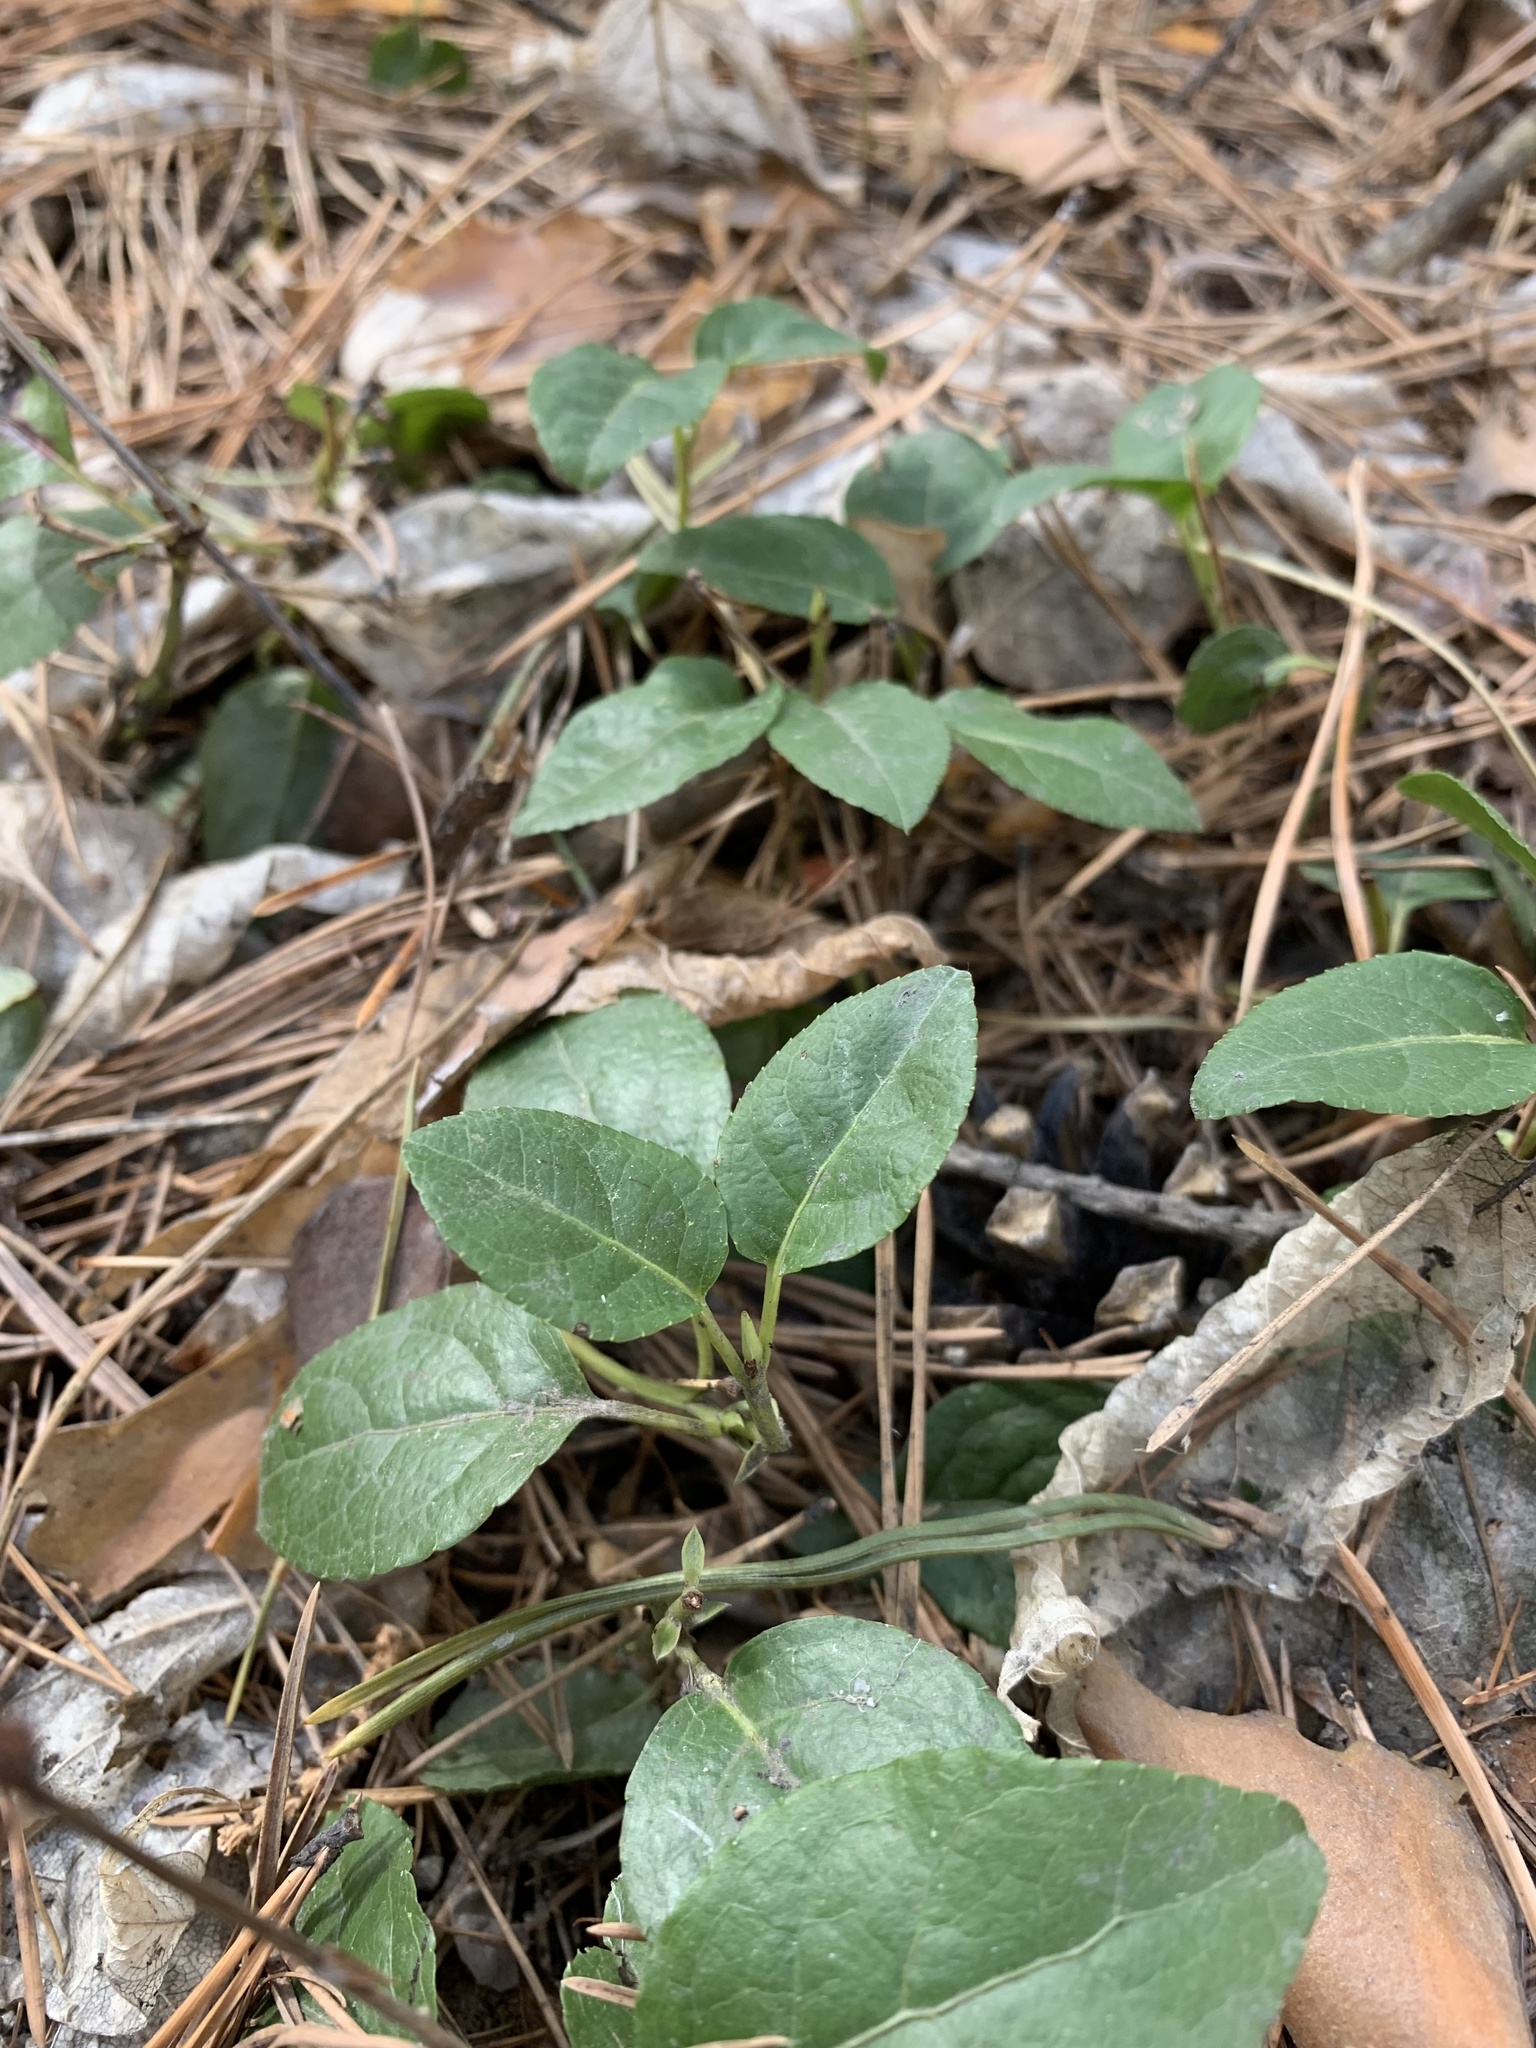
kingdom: Plantae
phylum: Tracheophyta
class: Magnoliopsida
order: Ericales
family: Ericaceae
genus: Orthilia
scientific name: Orthilia secunda
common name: One-sided orthilia
